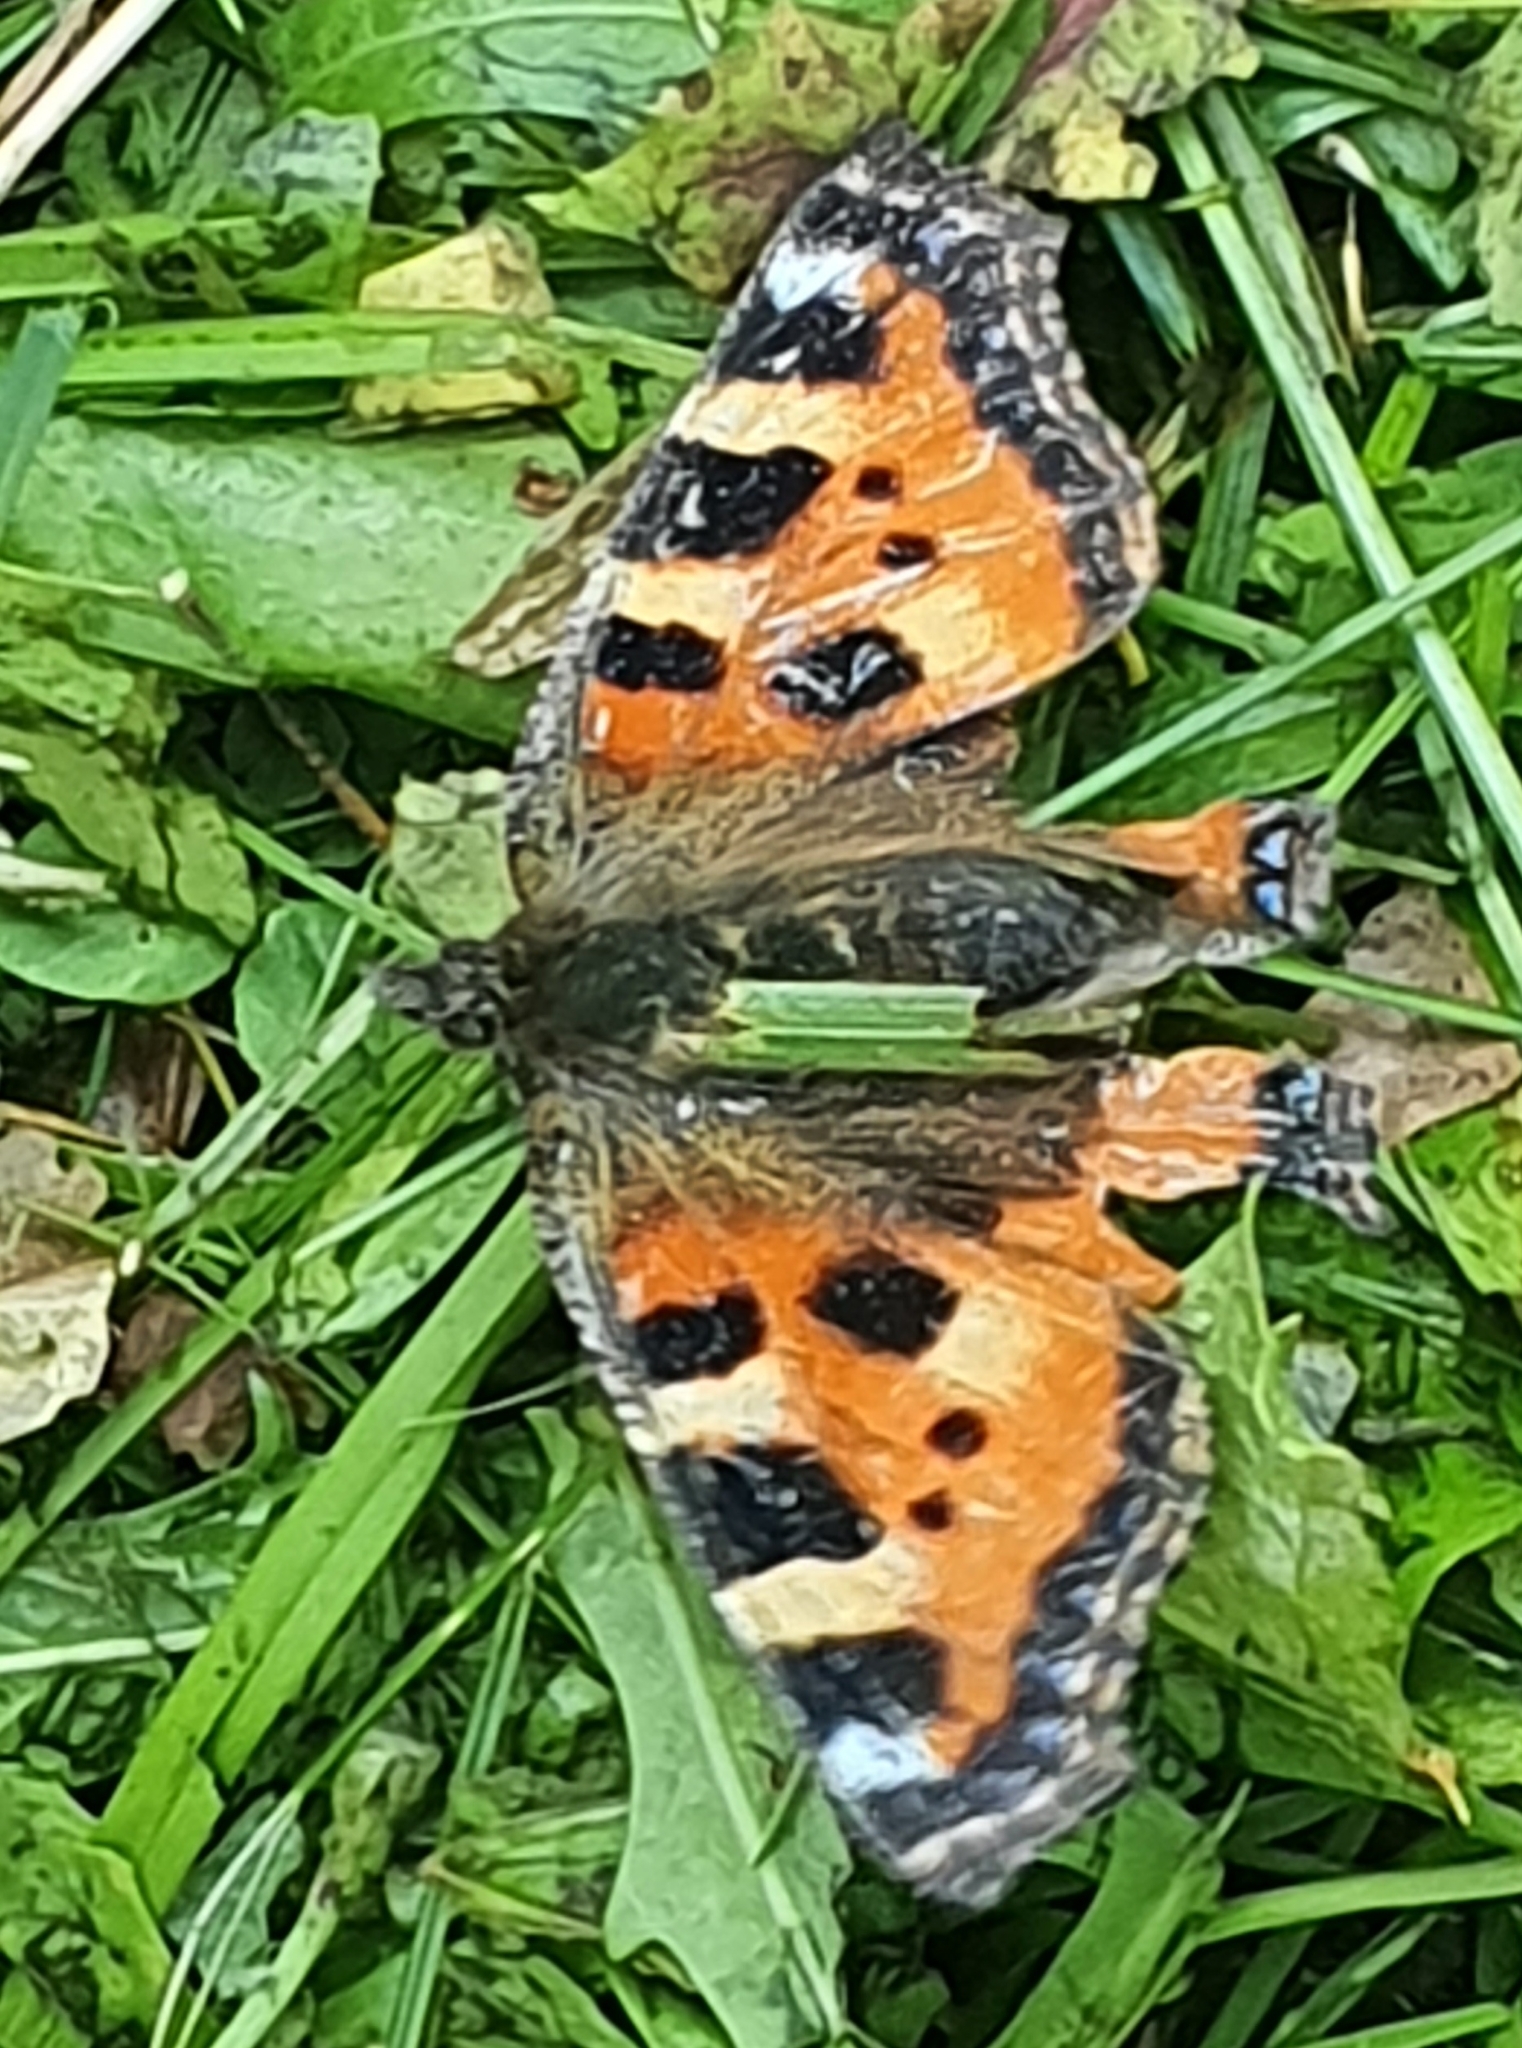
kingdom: Animalia
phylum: Arthropoda
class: Insecta
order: Lepidoptera
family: Nymphalidae
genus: Aglais
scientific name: Aglais urticae
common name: Small tortoiseshell
